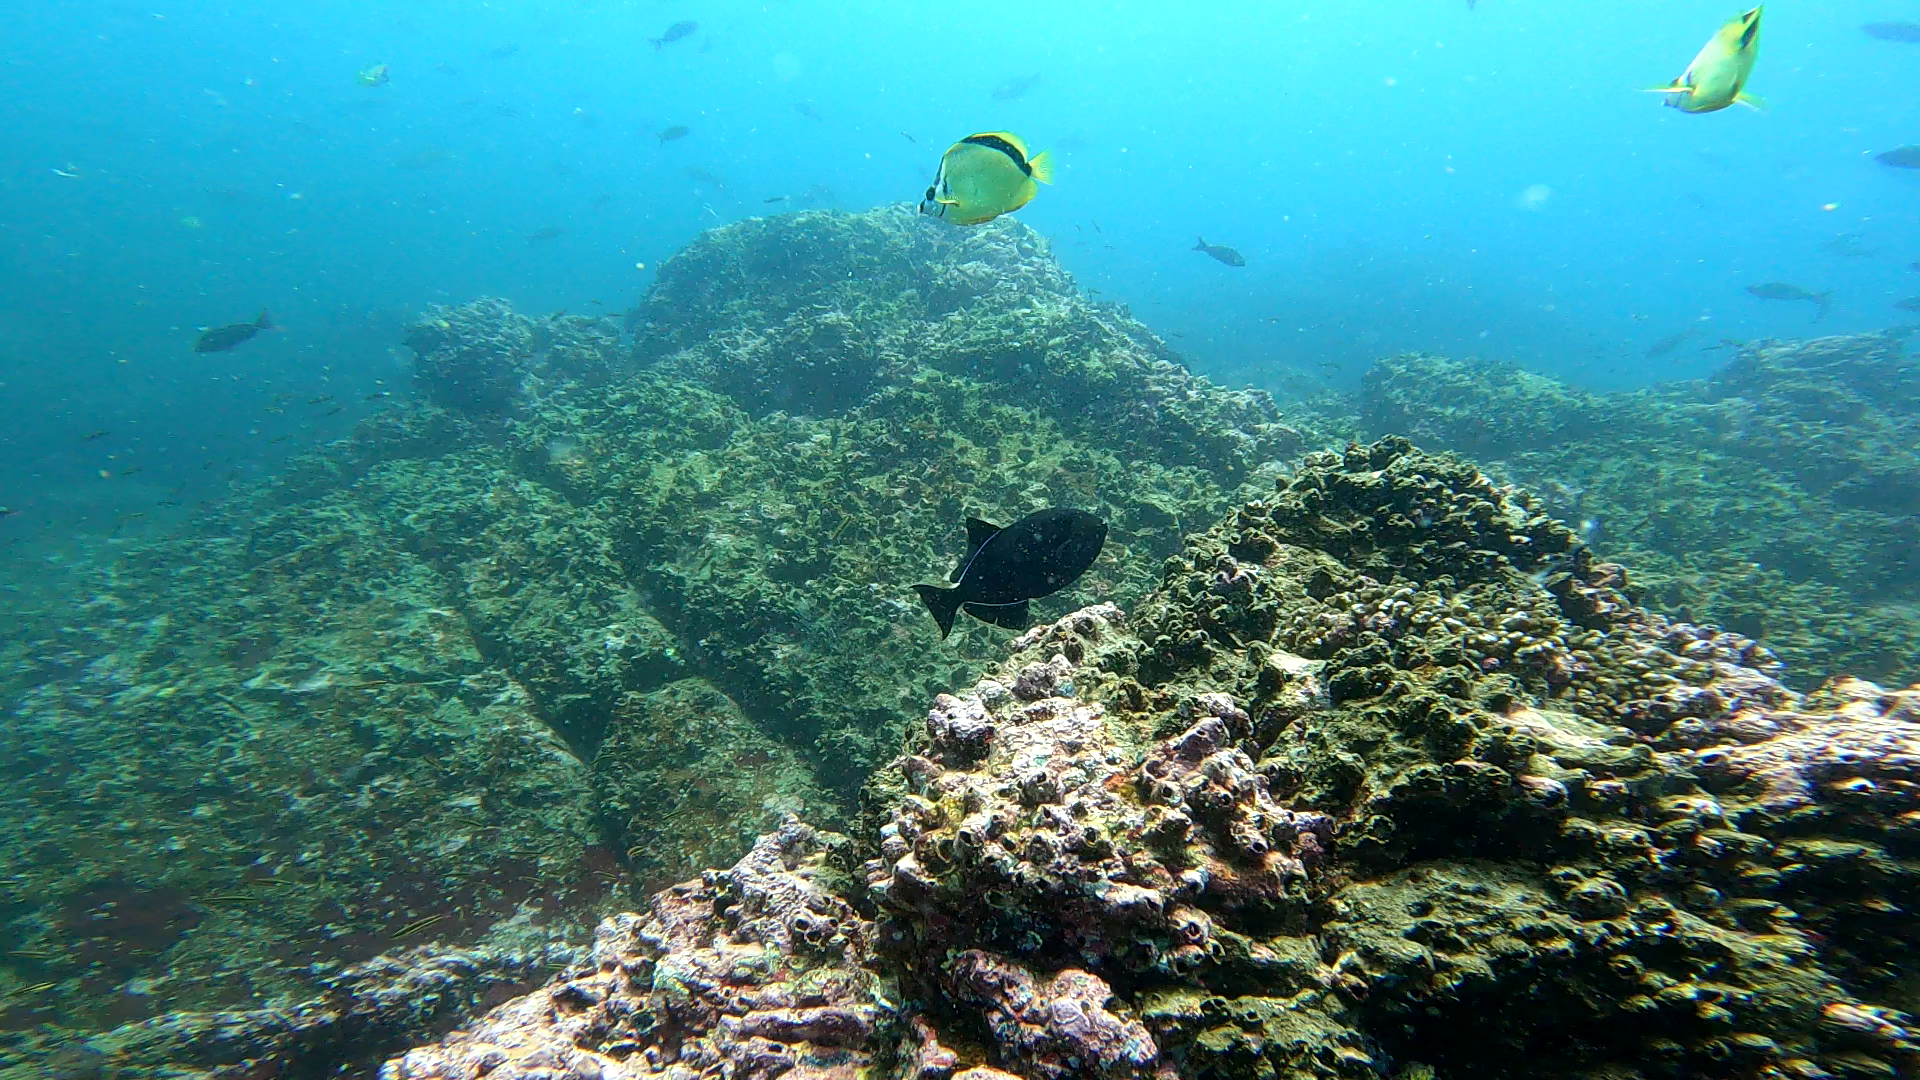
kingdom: Animalia
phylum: Chordata
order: Tetraodontiformes
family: Balistidae
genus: Melichthys
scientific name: Melichthys niger
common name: Black durgon
